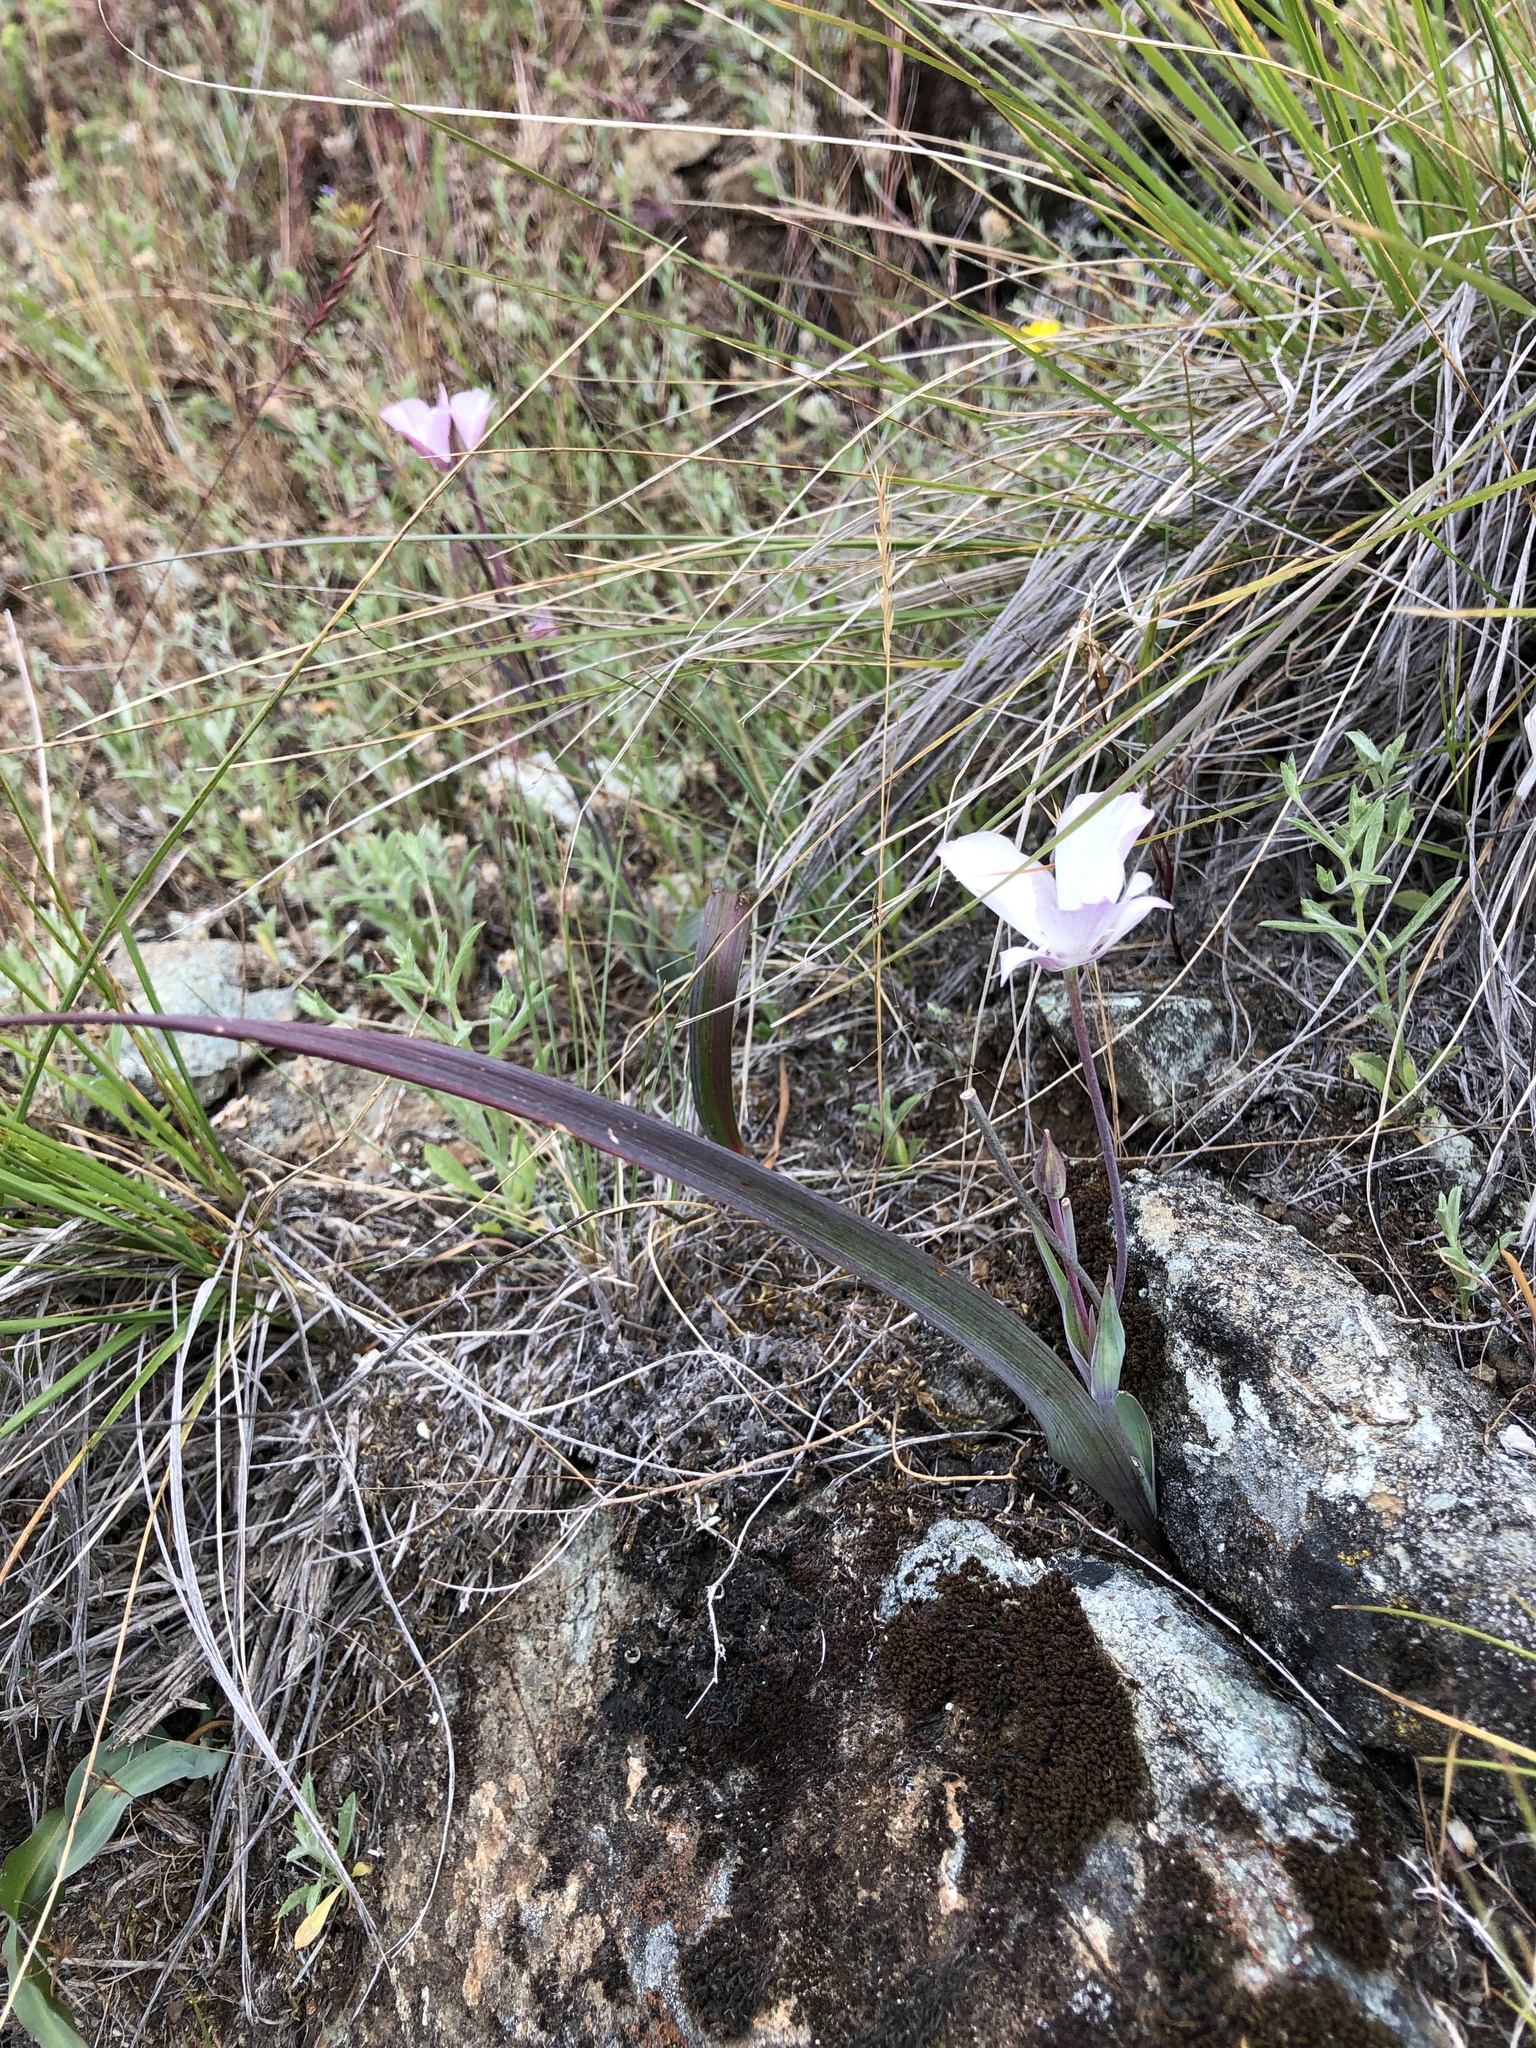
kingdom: Plantae
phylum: Tracheophyta
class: Liliopsida
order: Liliales
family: Liliaceae
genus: Calochortus
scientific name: Calochortus umbellatus
